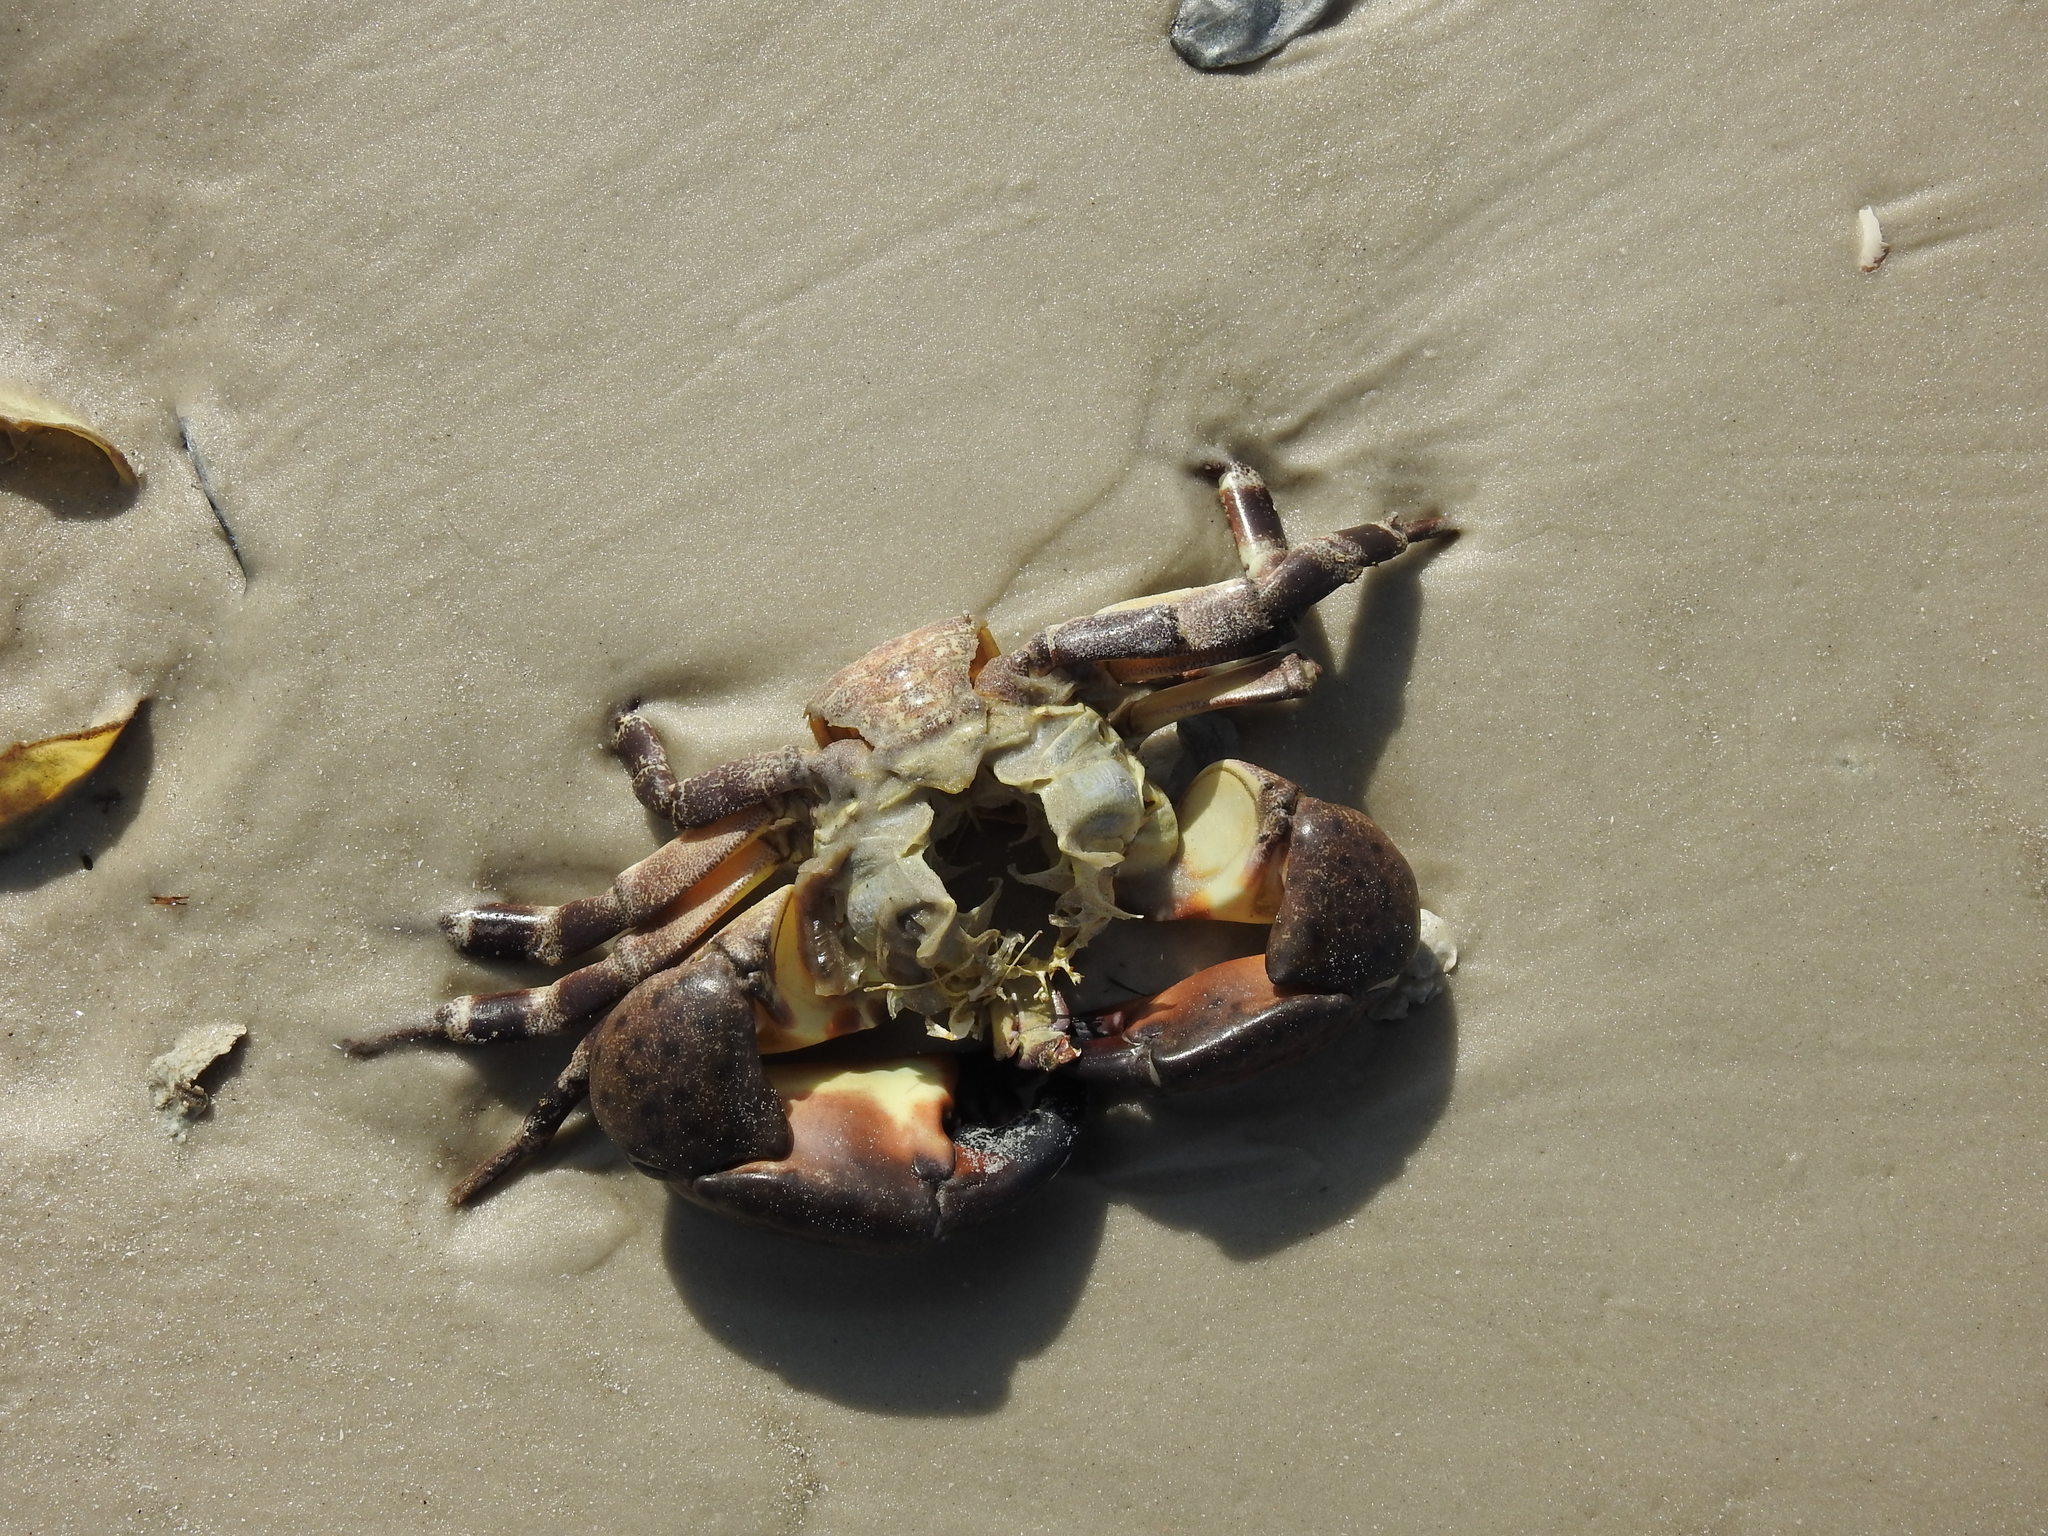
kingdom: Animalia
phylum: Arthropoda
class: Malacostraca
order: Decapoda
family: Menippidae
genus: Menippe
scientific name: Menippe mercenaria
